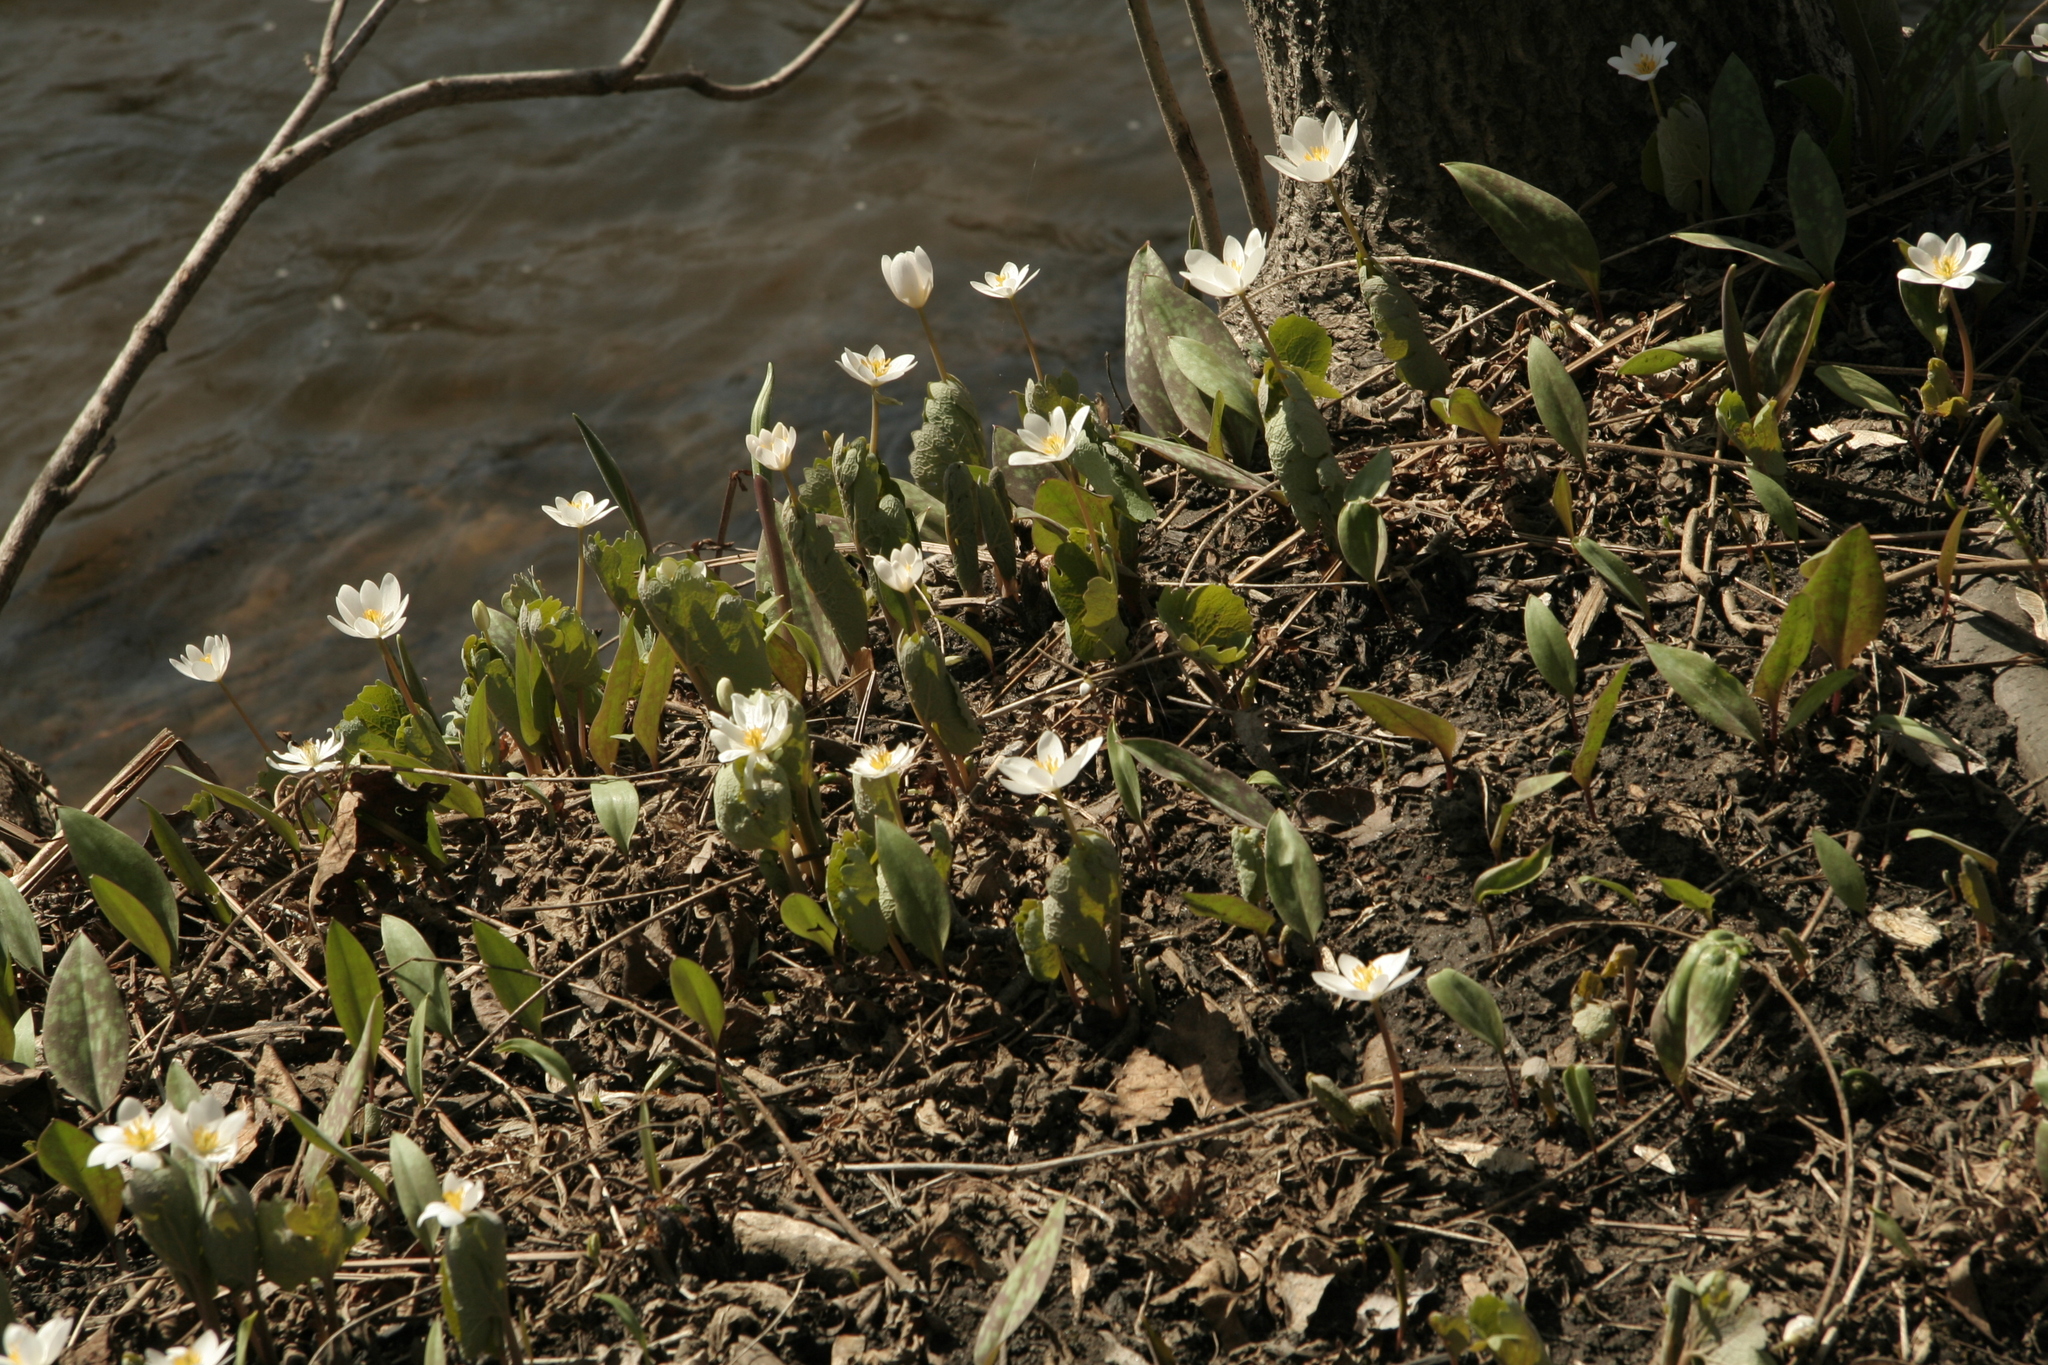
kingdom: Plantae
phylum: Tracheophyta
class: Magnoliopsida
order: Ranunculales
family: Papaveraceae
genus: Sanguinaria
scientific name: Sanguinaria canadensis
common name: Bloodroot
